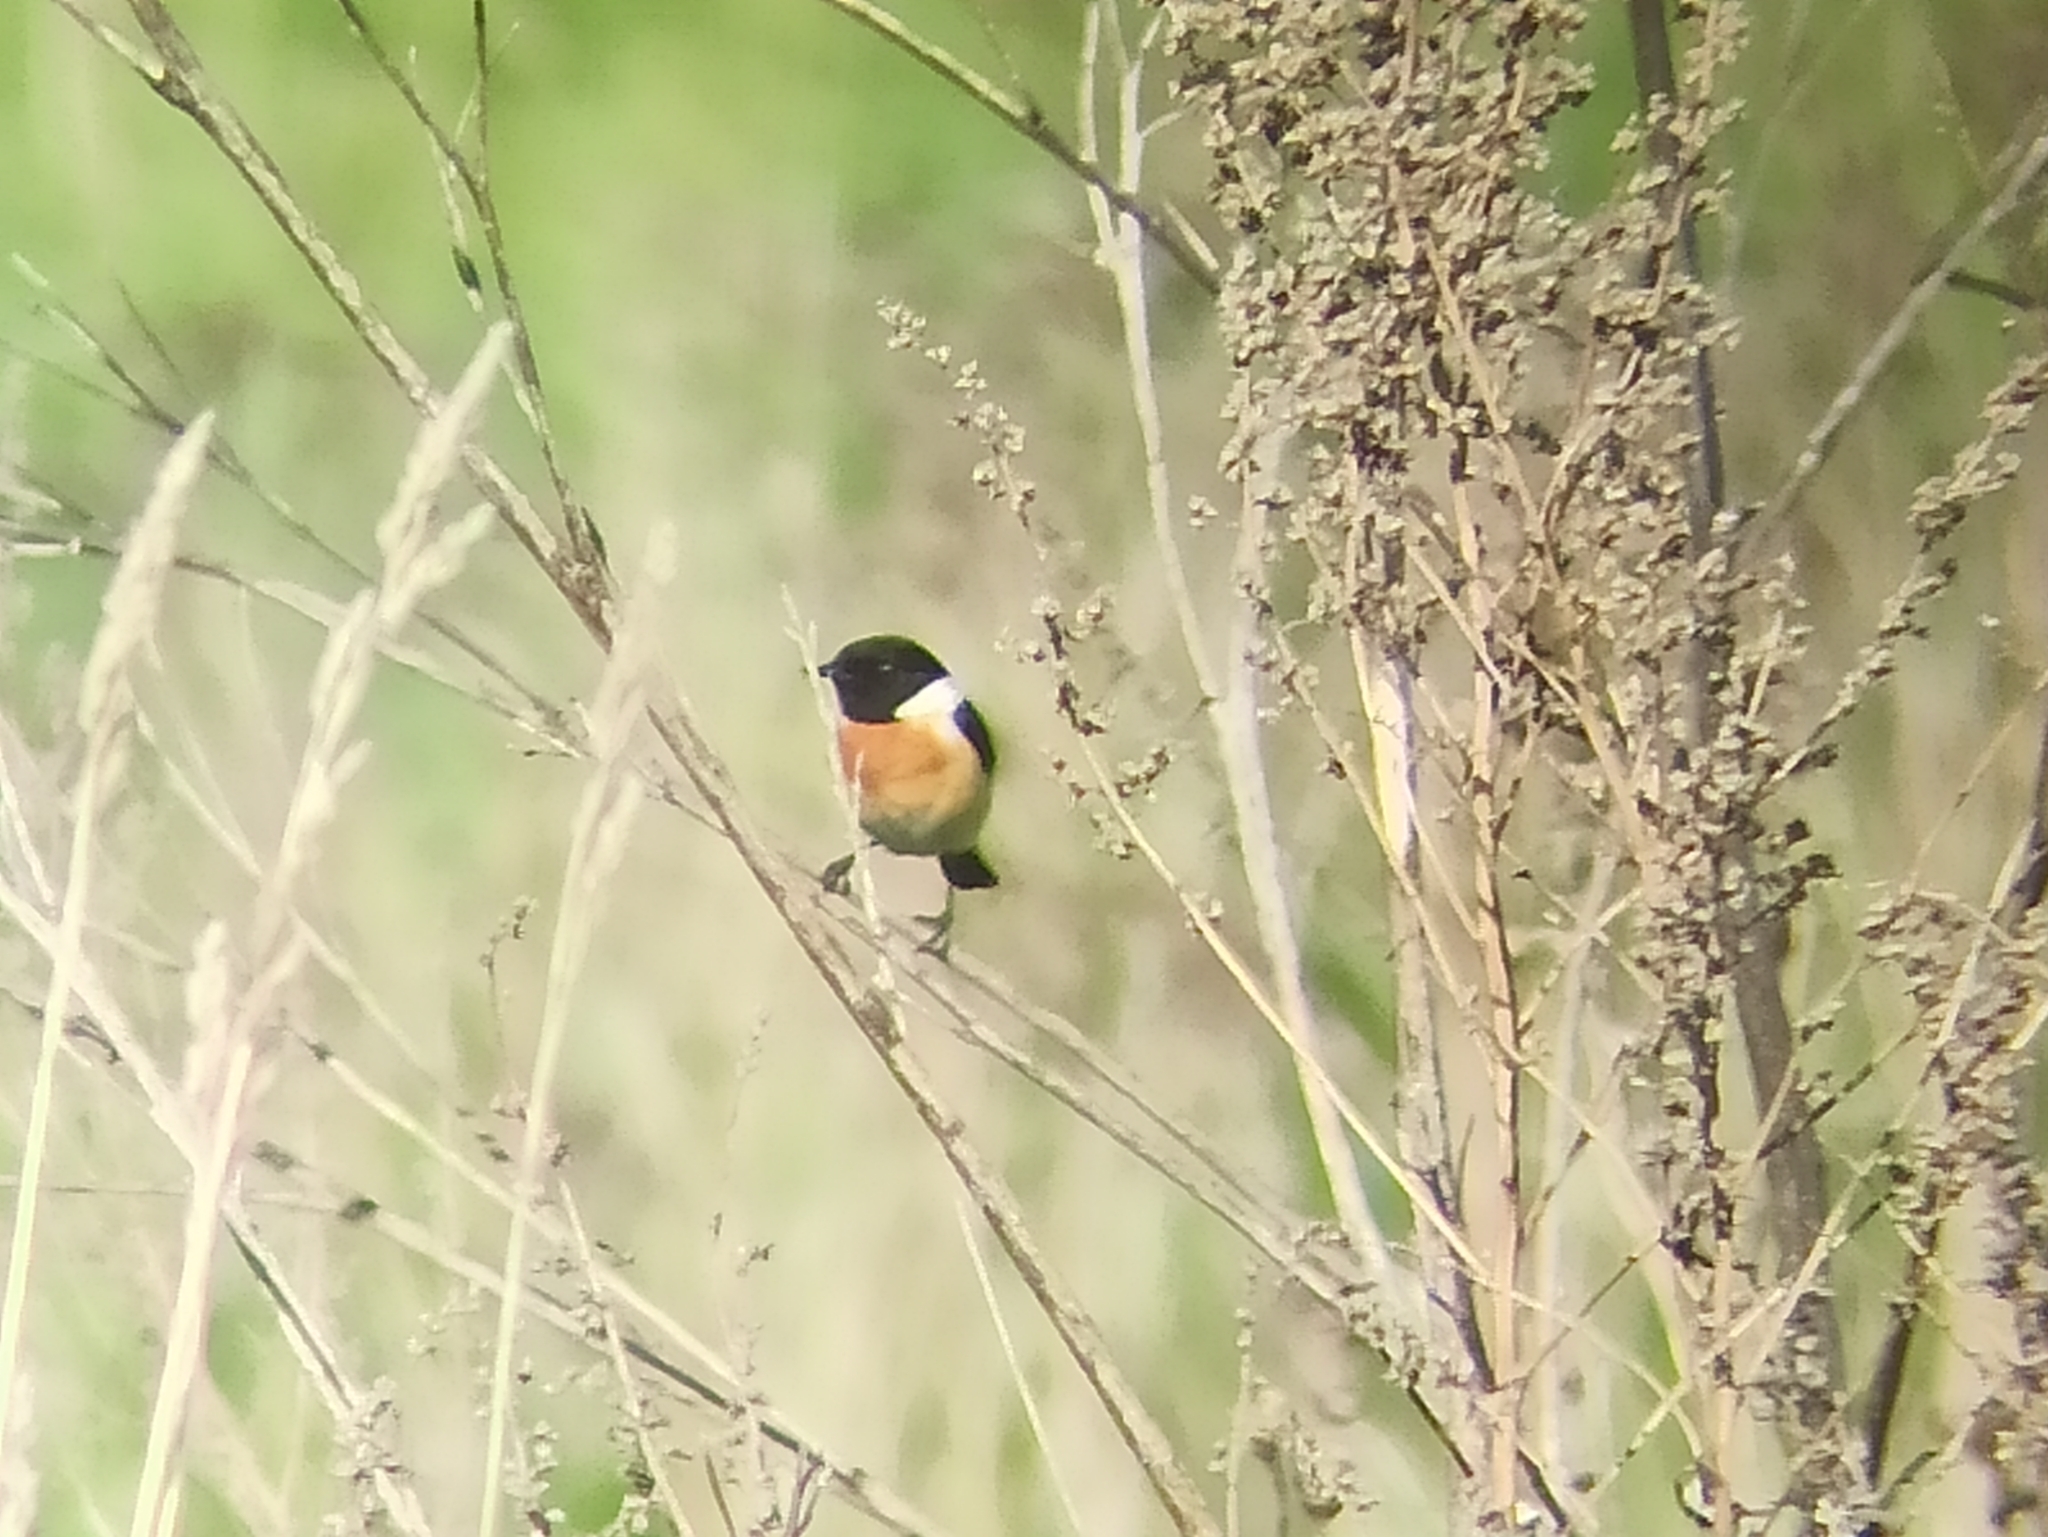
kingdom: Animalia
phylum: Chordata
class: Aves
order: Passeriformes
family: Muscicapidae
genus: Saxicola
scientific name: Saxicola maurus
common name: Siberian stonechat
